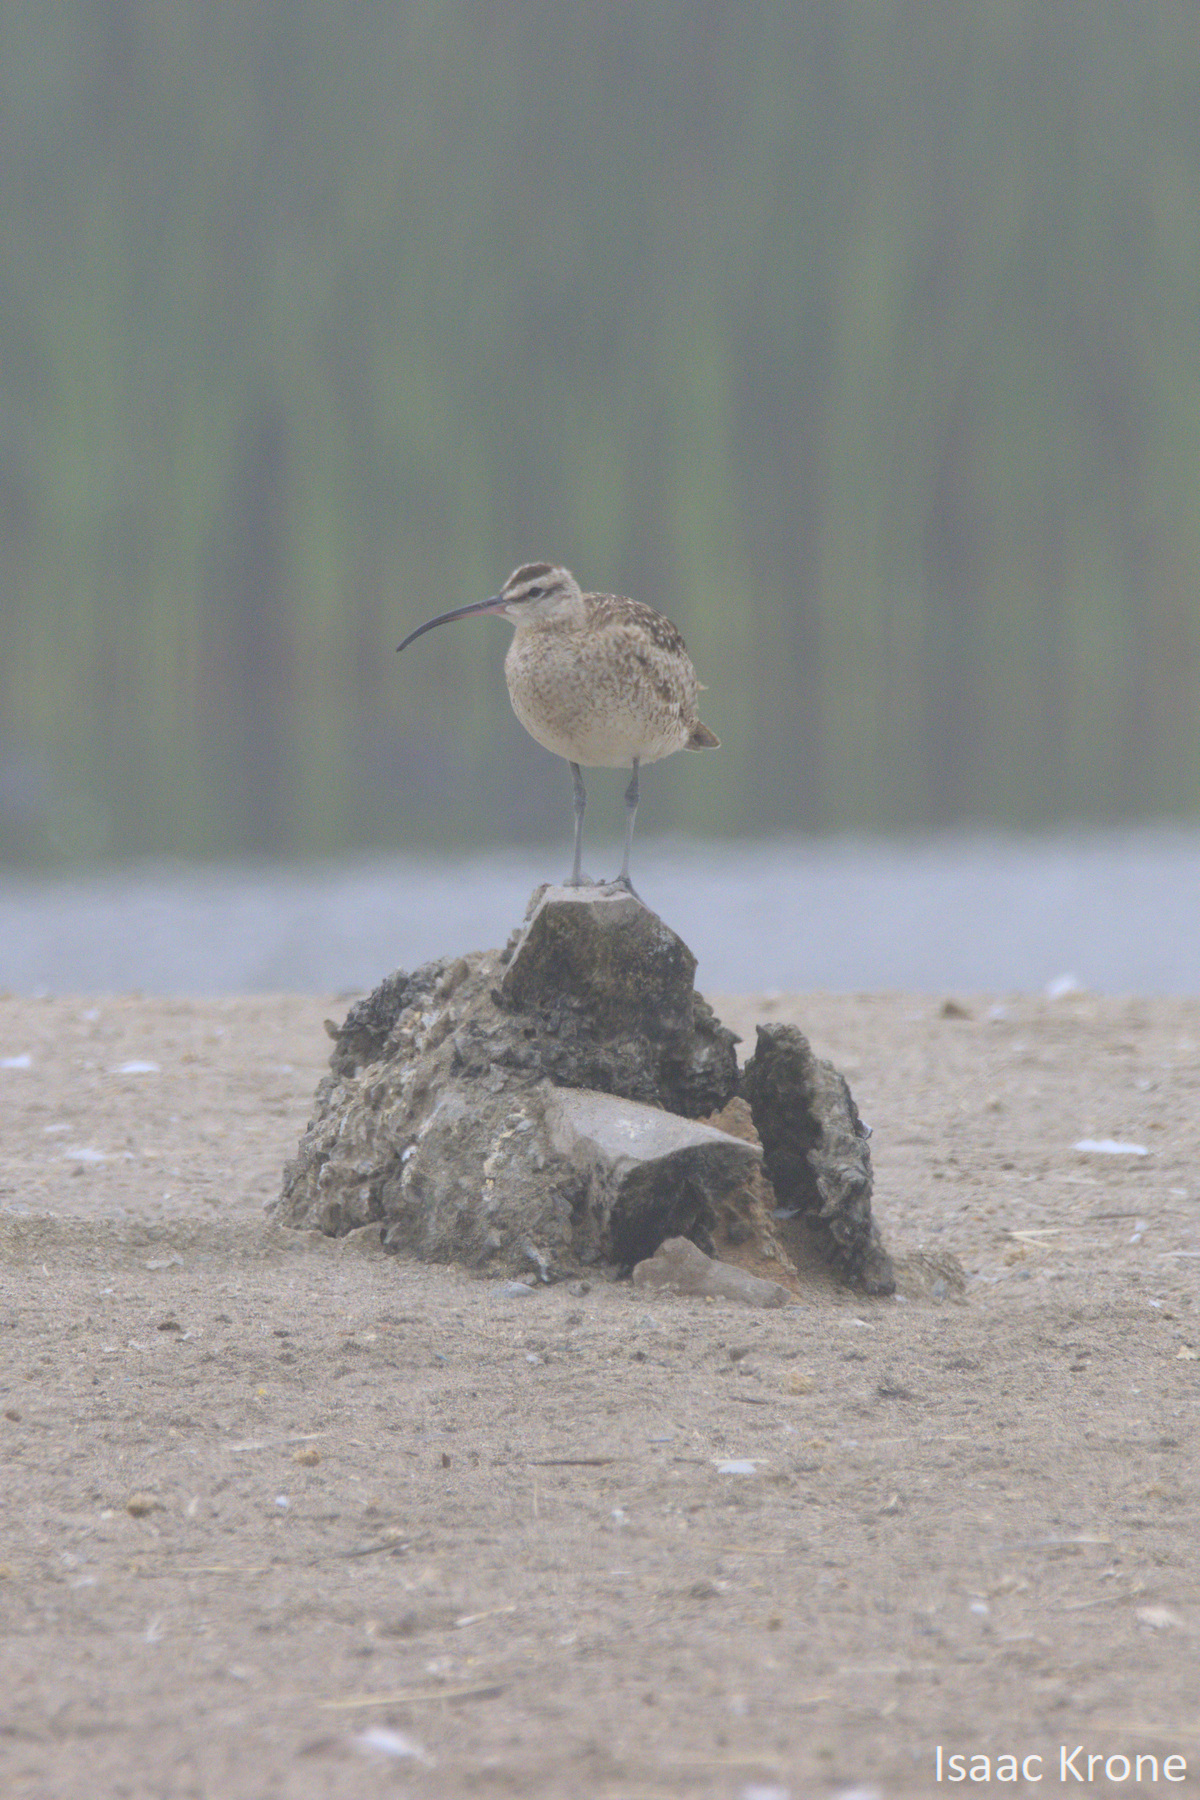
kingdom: Animalia
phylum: Chordata
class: Aves
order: Charadriiformes
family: Scolopacidae
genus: Numenius
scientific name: Numenius phaeopus
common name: Whimbrel
